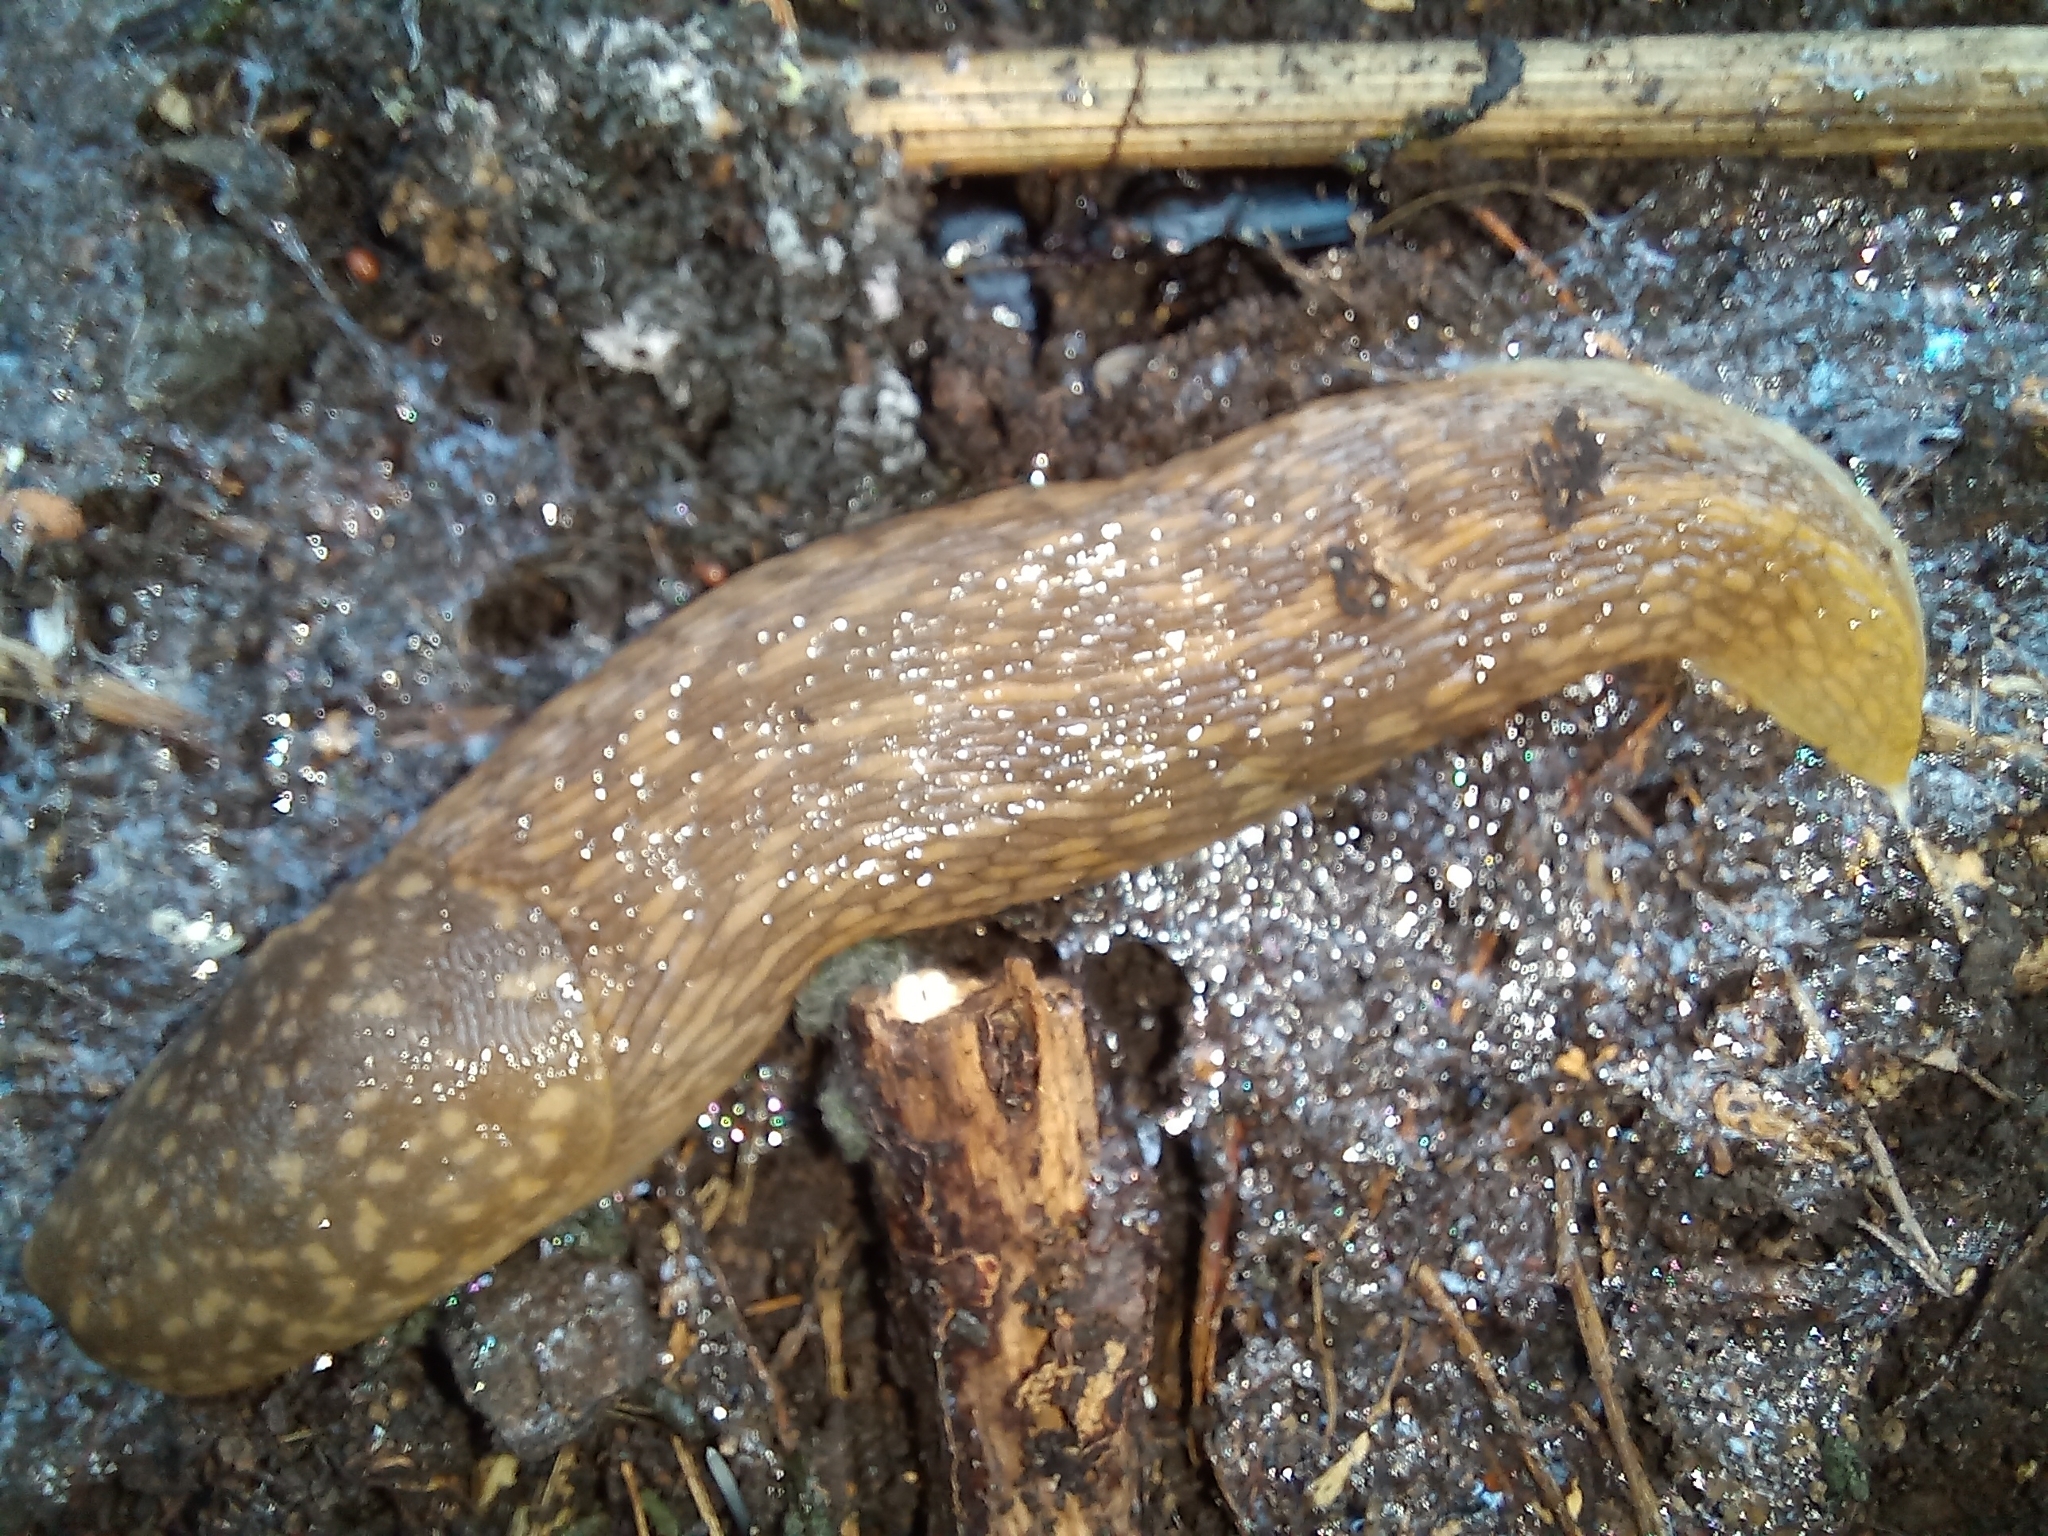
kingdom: Animalia
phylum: Mollusca
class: Gastropoda
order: Stylommatophora
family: Limacidae
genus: Limacus
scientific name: Limacus flavus
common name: Yellow gardenslug
